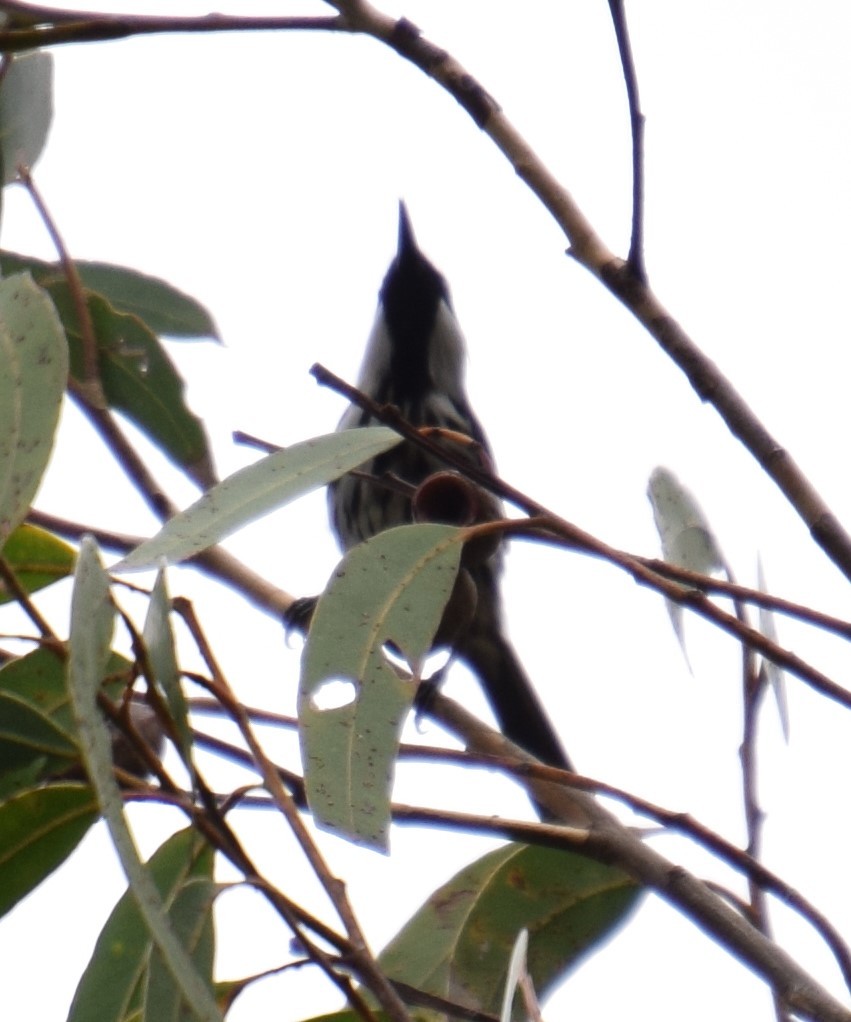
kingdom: Animalia
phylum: Chordata
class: Aves
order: Passeriformes
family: Meliphagidae
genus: Phylidonyris
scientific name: Phylidonyris niger
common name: White-cheeked honeyeater
